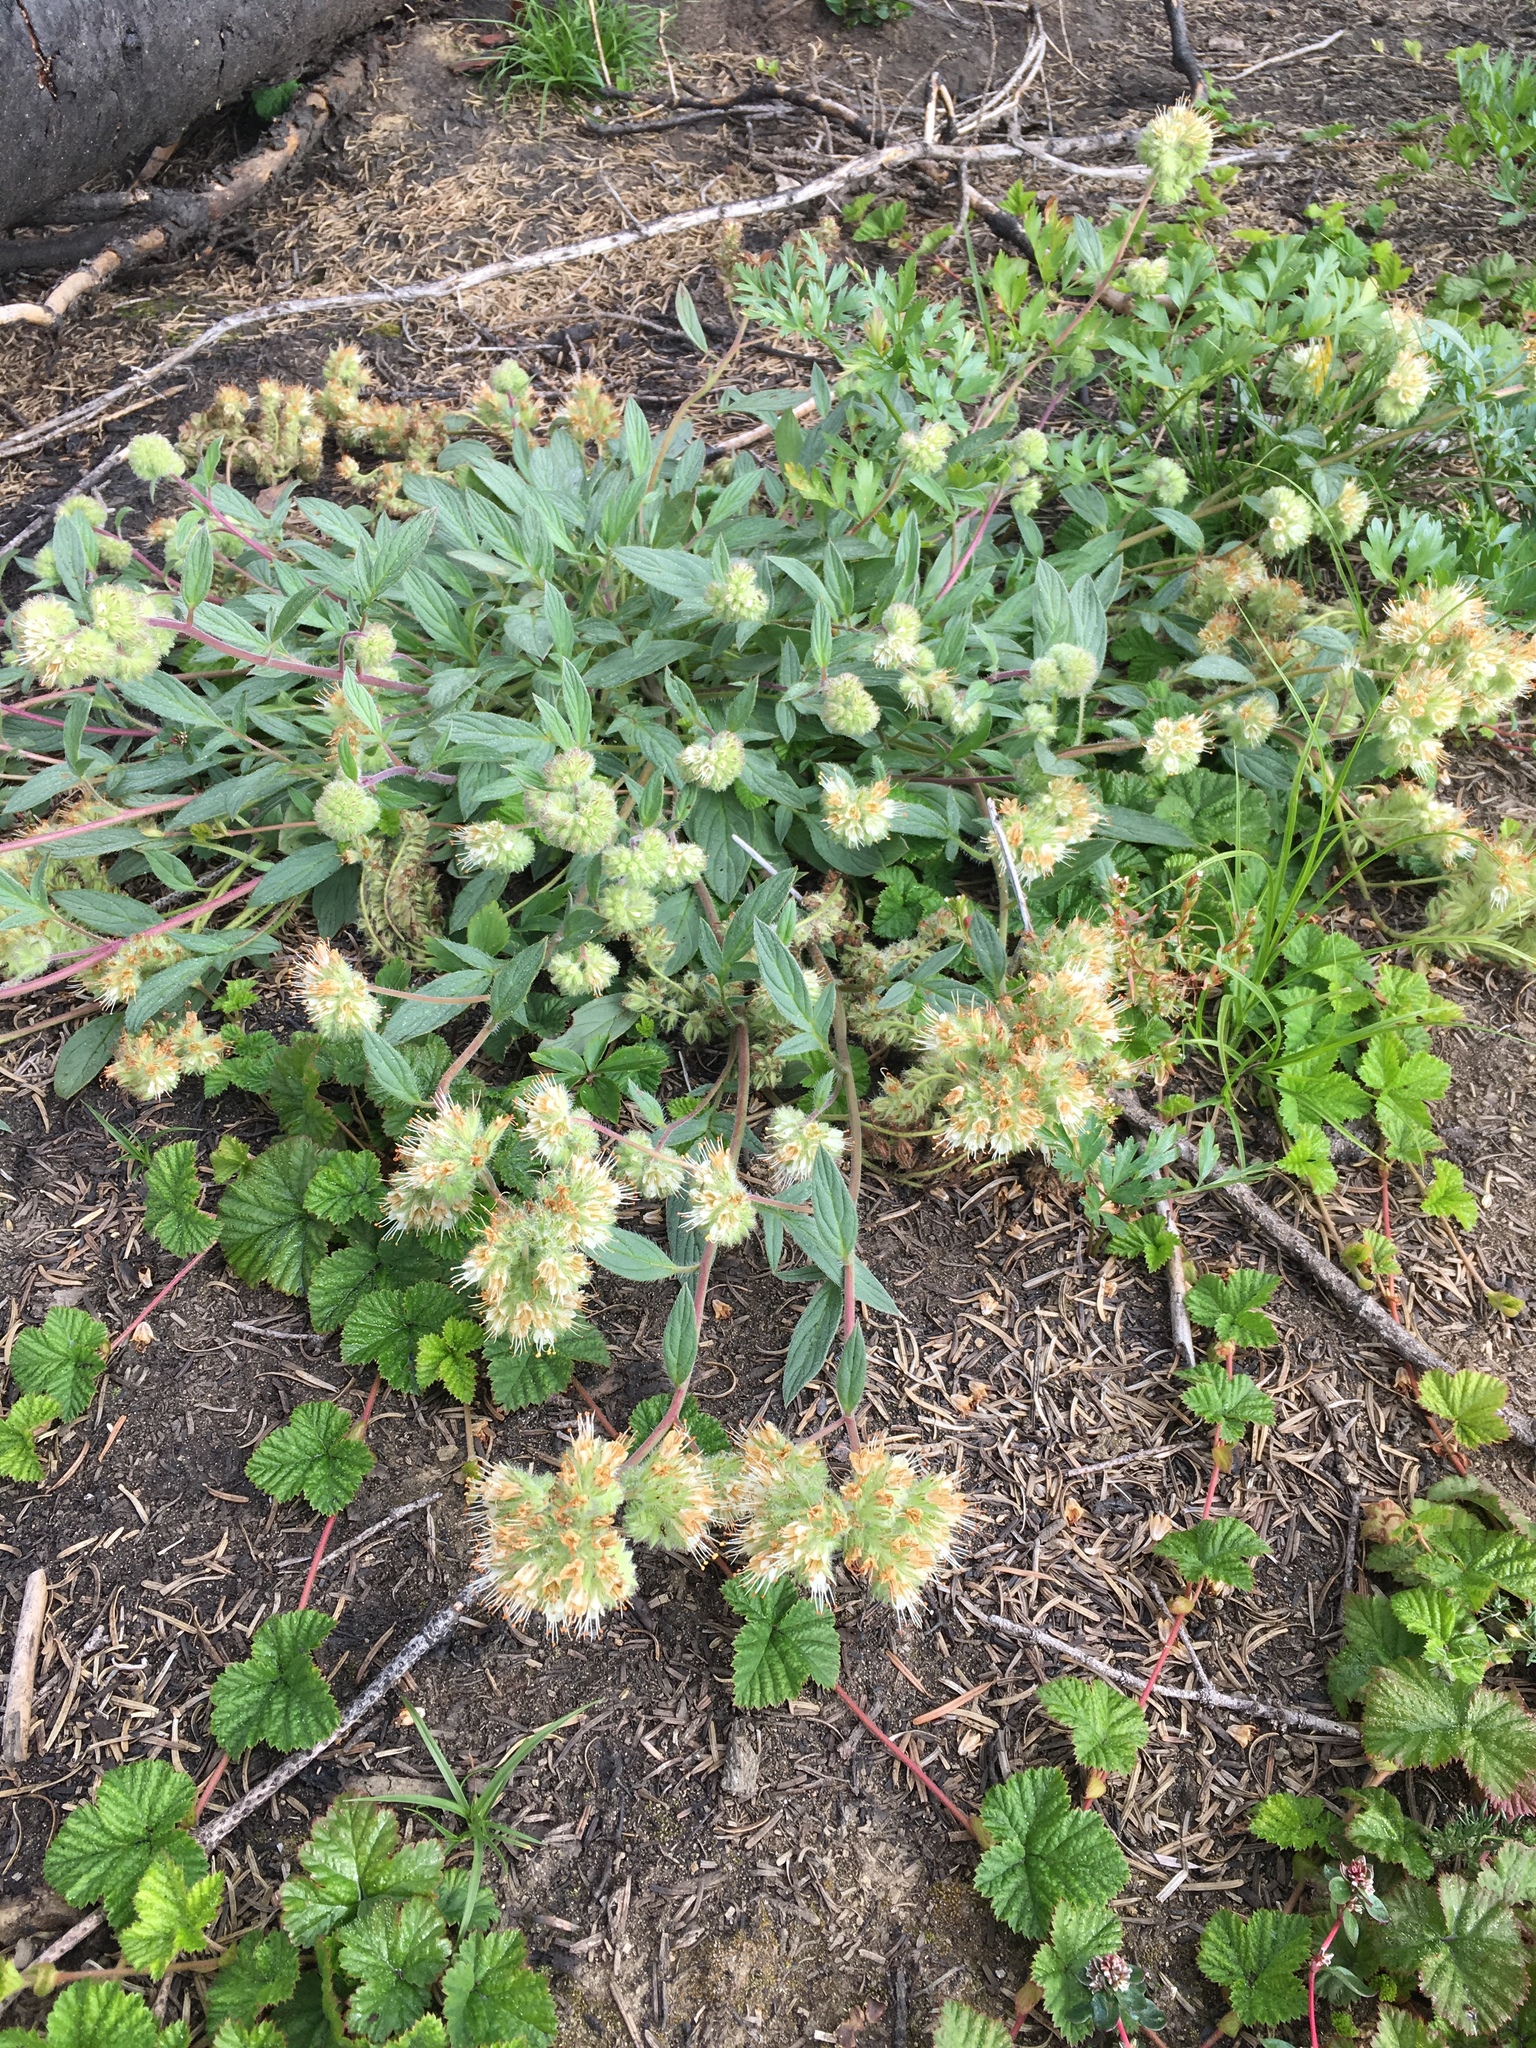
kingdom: Plantae
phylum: Tracheophyta
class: Magnoliopsida
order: Boraginales
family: Hydrophyllaceae
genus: Phacelia
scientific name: Phacelia hastata
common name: Silver-leaved phacelia
